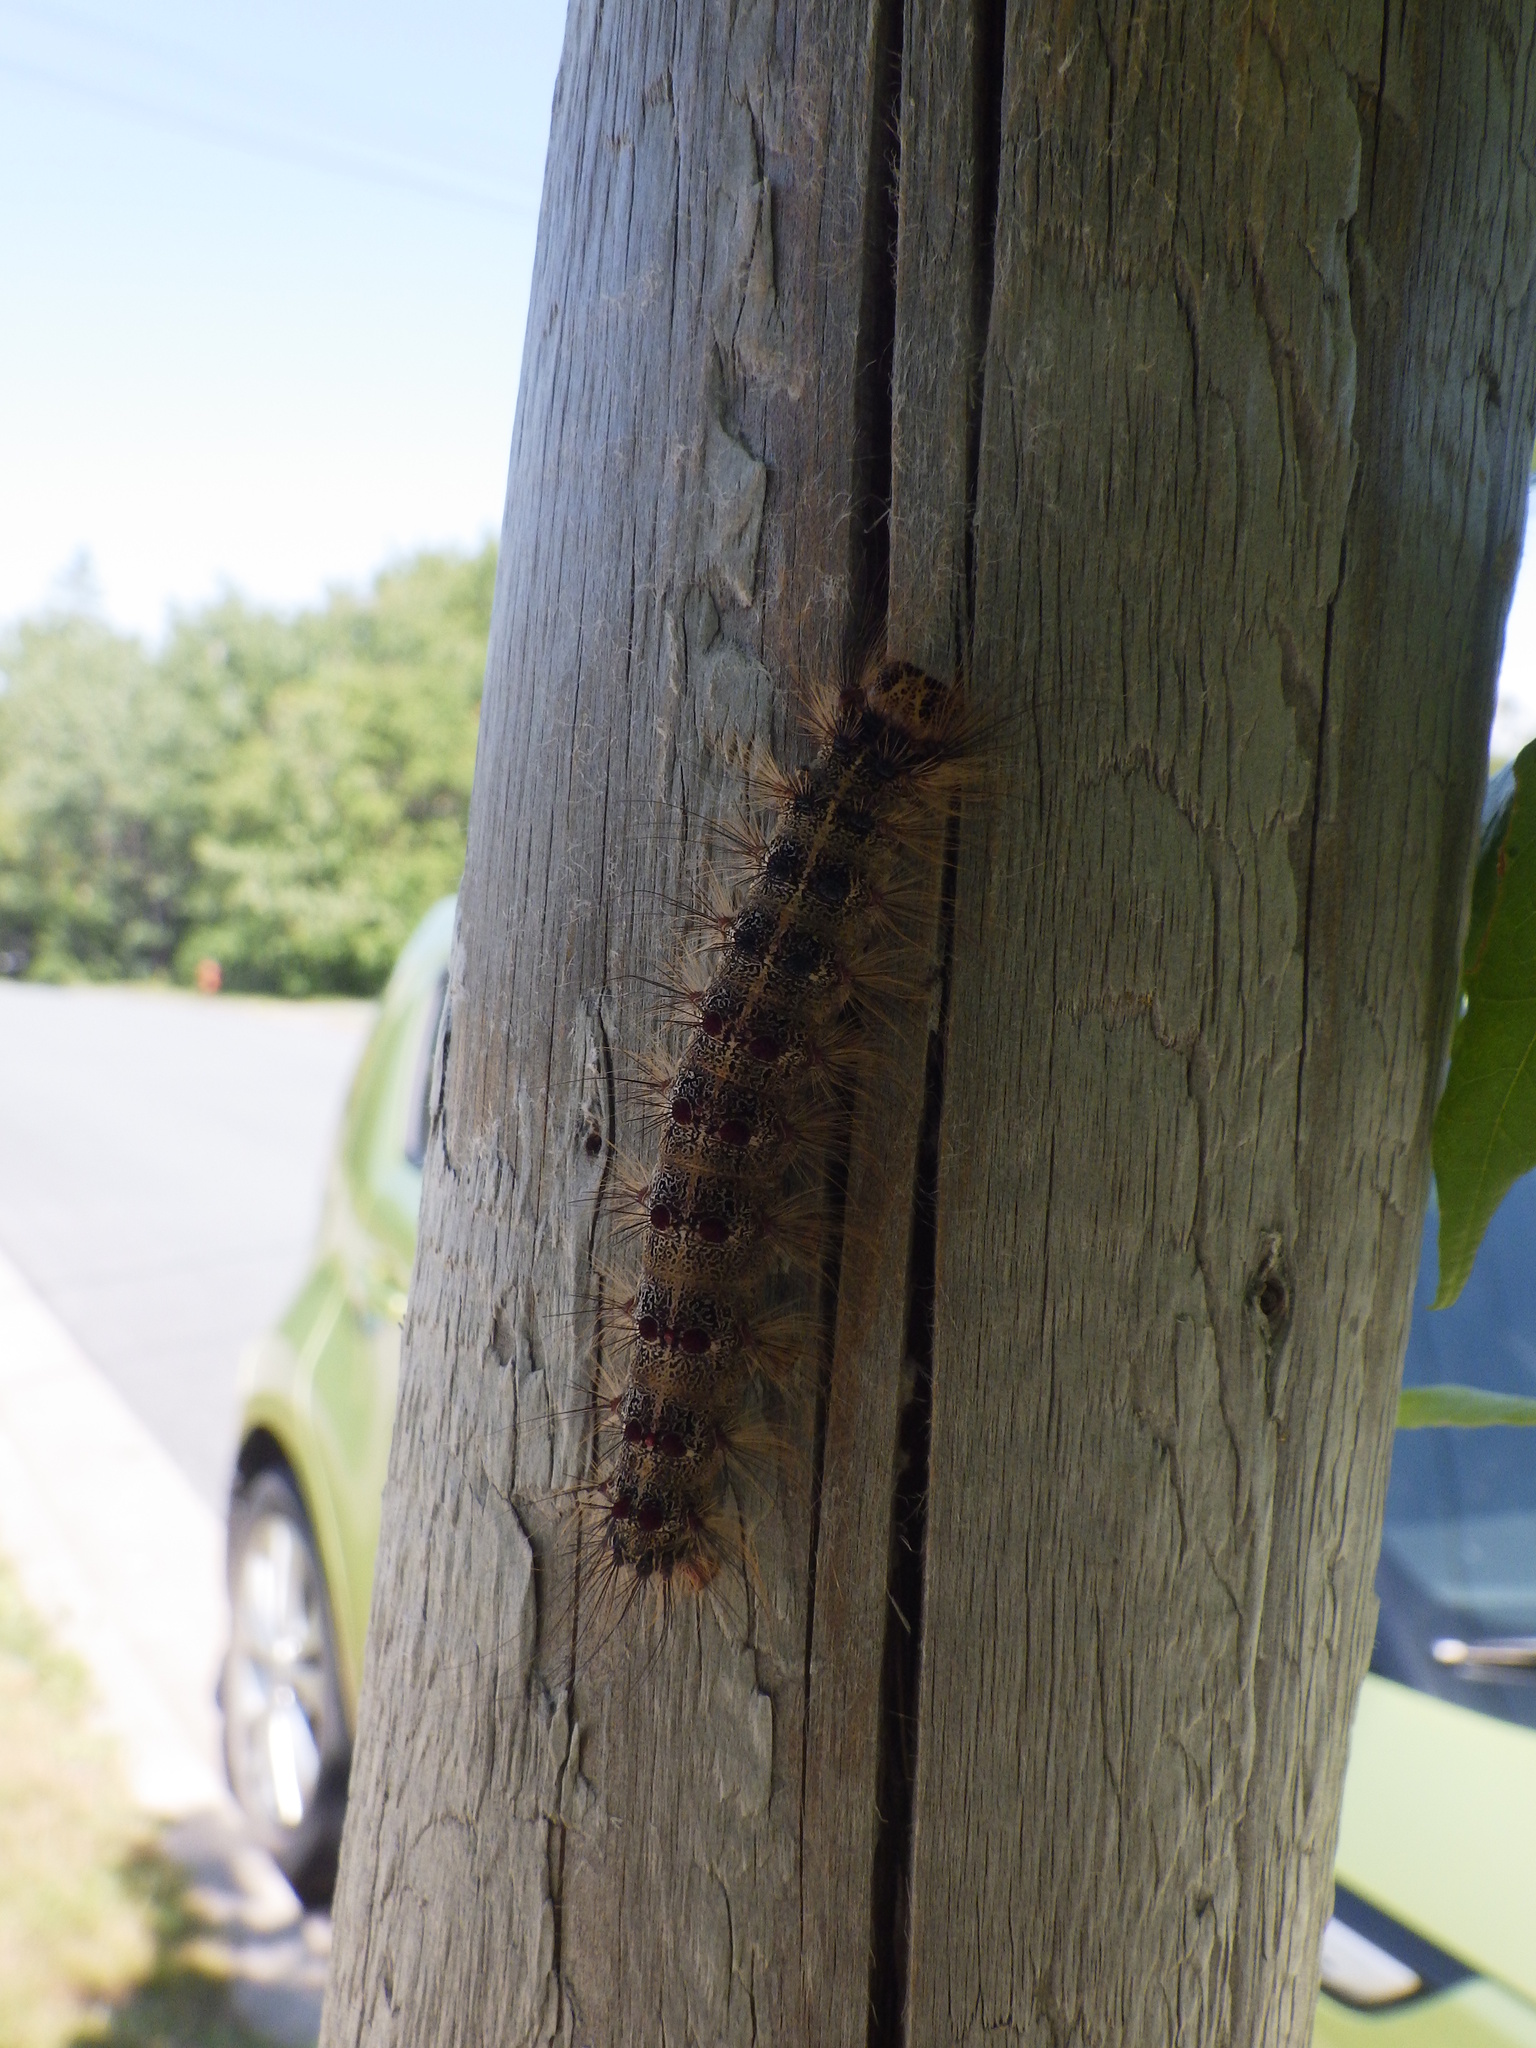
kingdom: Animalia
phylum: Arthropoda
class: Insecta
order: Lepidoptera
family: Erebidae
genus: Lymantria
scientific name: Lymantria dispar
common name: Gypsy moth
